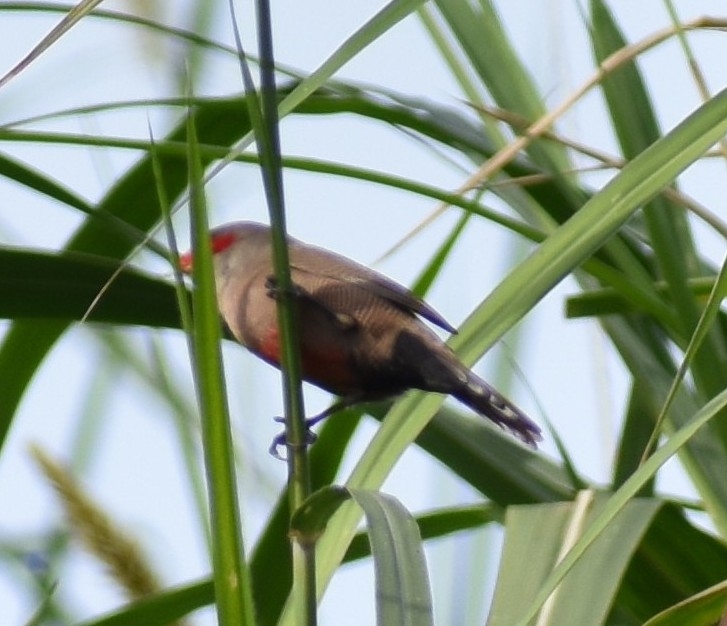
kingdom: Animalia
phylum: Chordata
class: Aves
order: Passeriformes
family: Estrildidae
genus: Estrilda
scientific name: Estrilda astrild
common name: Common waxbill
